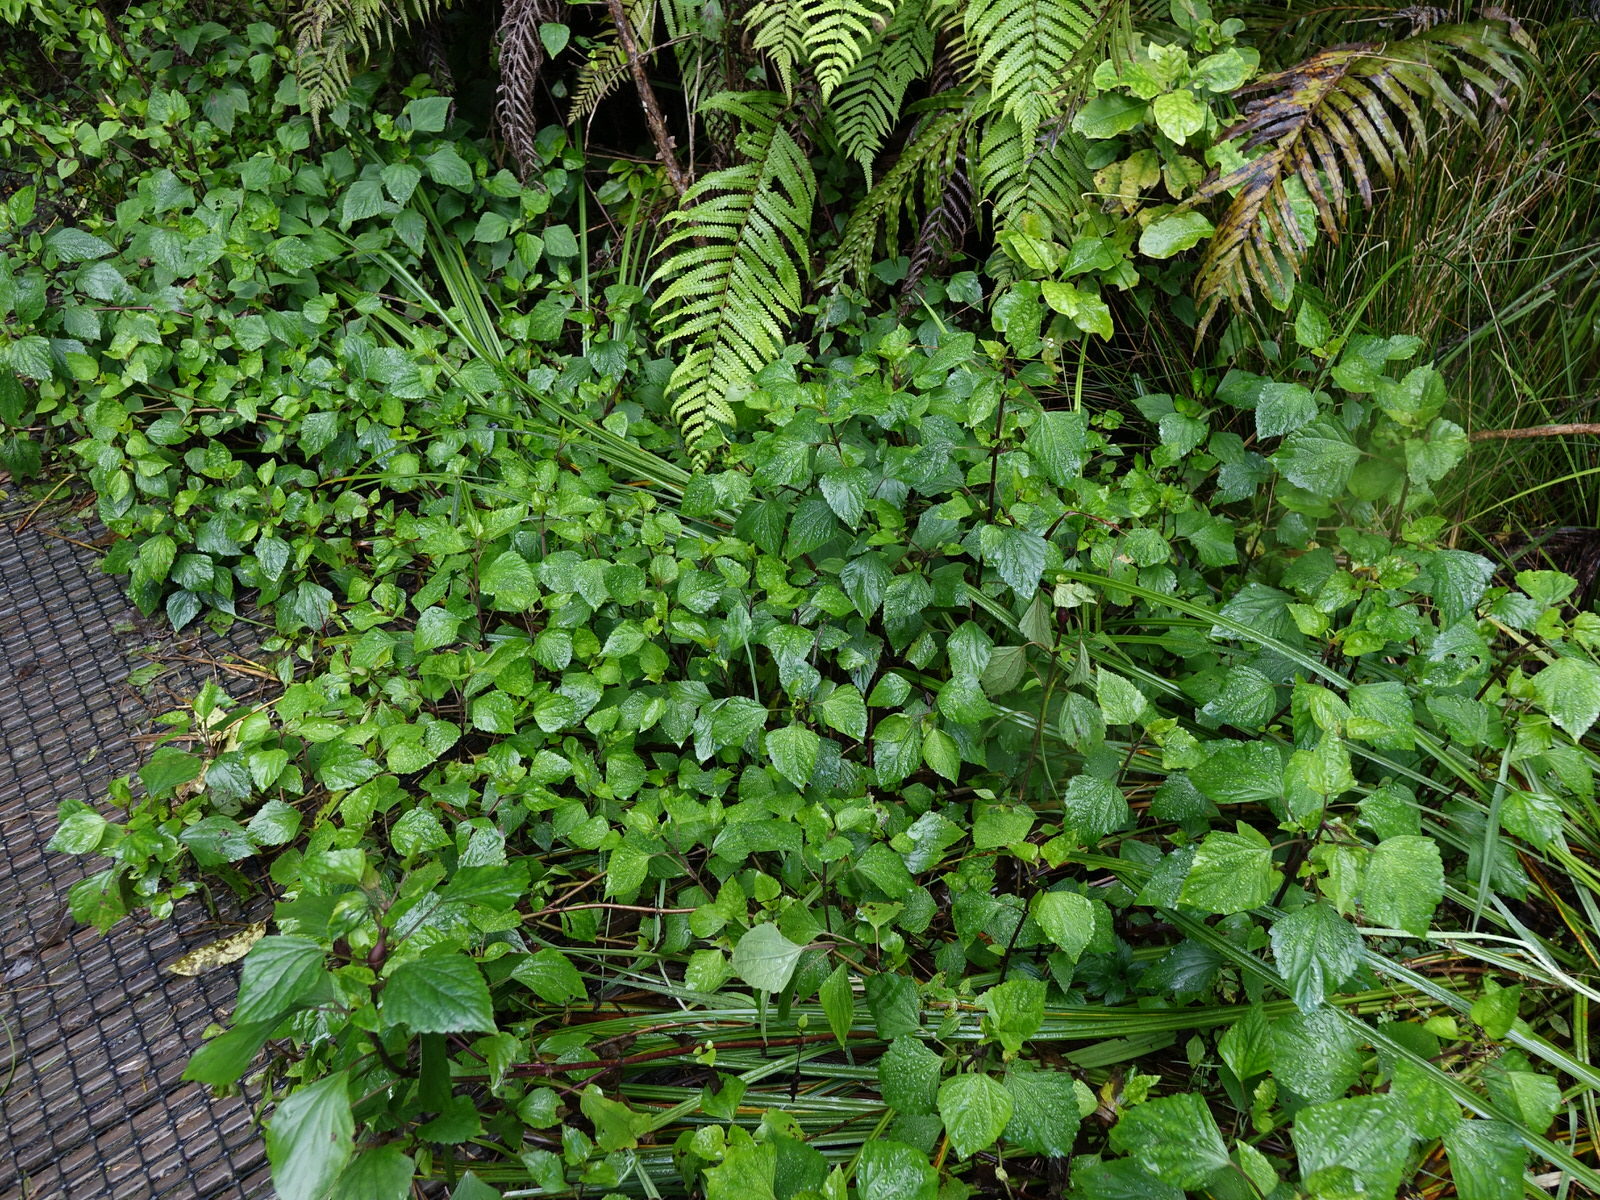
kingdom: Plantae
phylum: Tracheophyta
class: Magnoliopsida
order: Asterales
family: Asteraceae
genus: Ageratina
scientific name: Ageratina adenophora
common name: Sticky snakeroot
